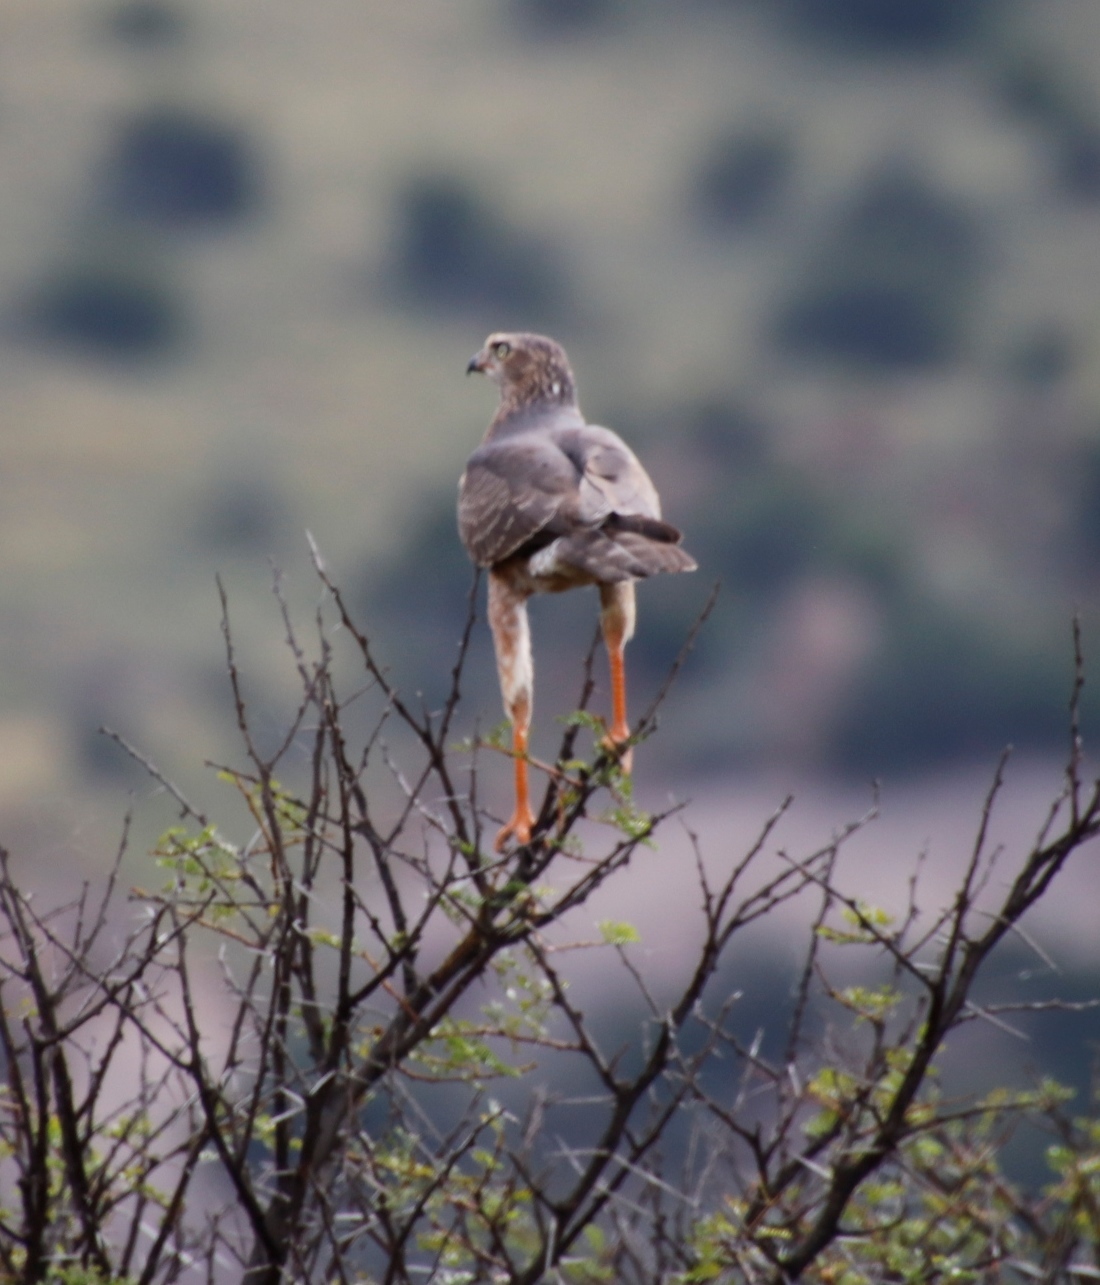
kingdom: Animalia
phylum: Chordata
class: Aves
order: Accipitriformes
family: Accipitridae
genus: Melierax
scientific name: Melierax canorus
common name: Pale chanting-goshawk
